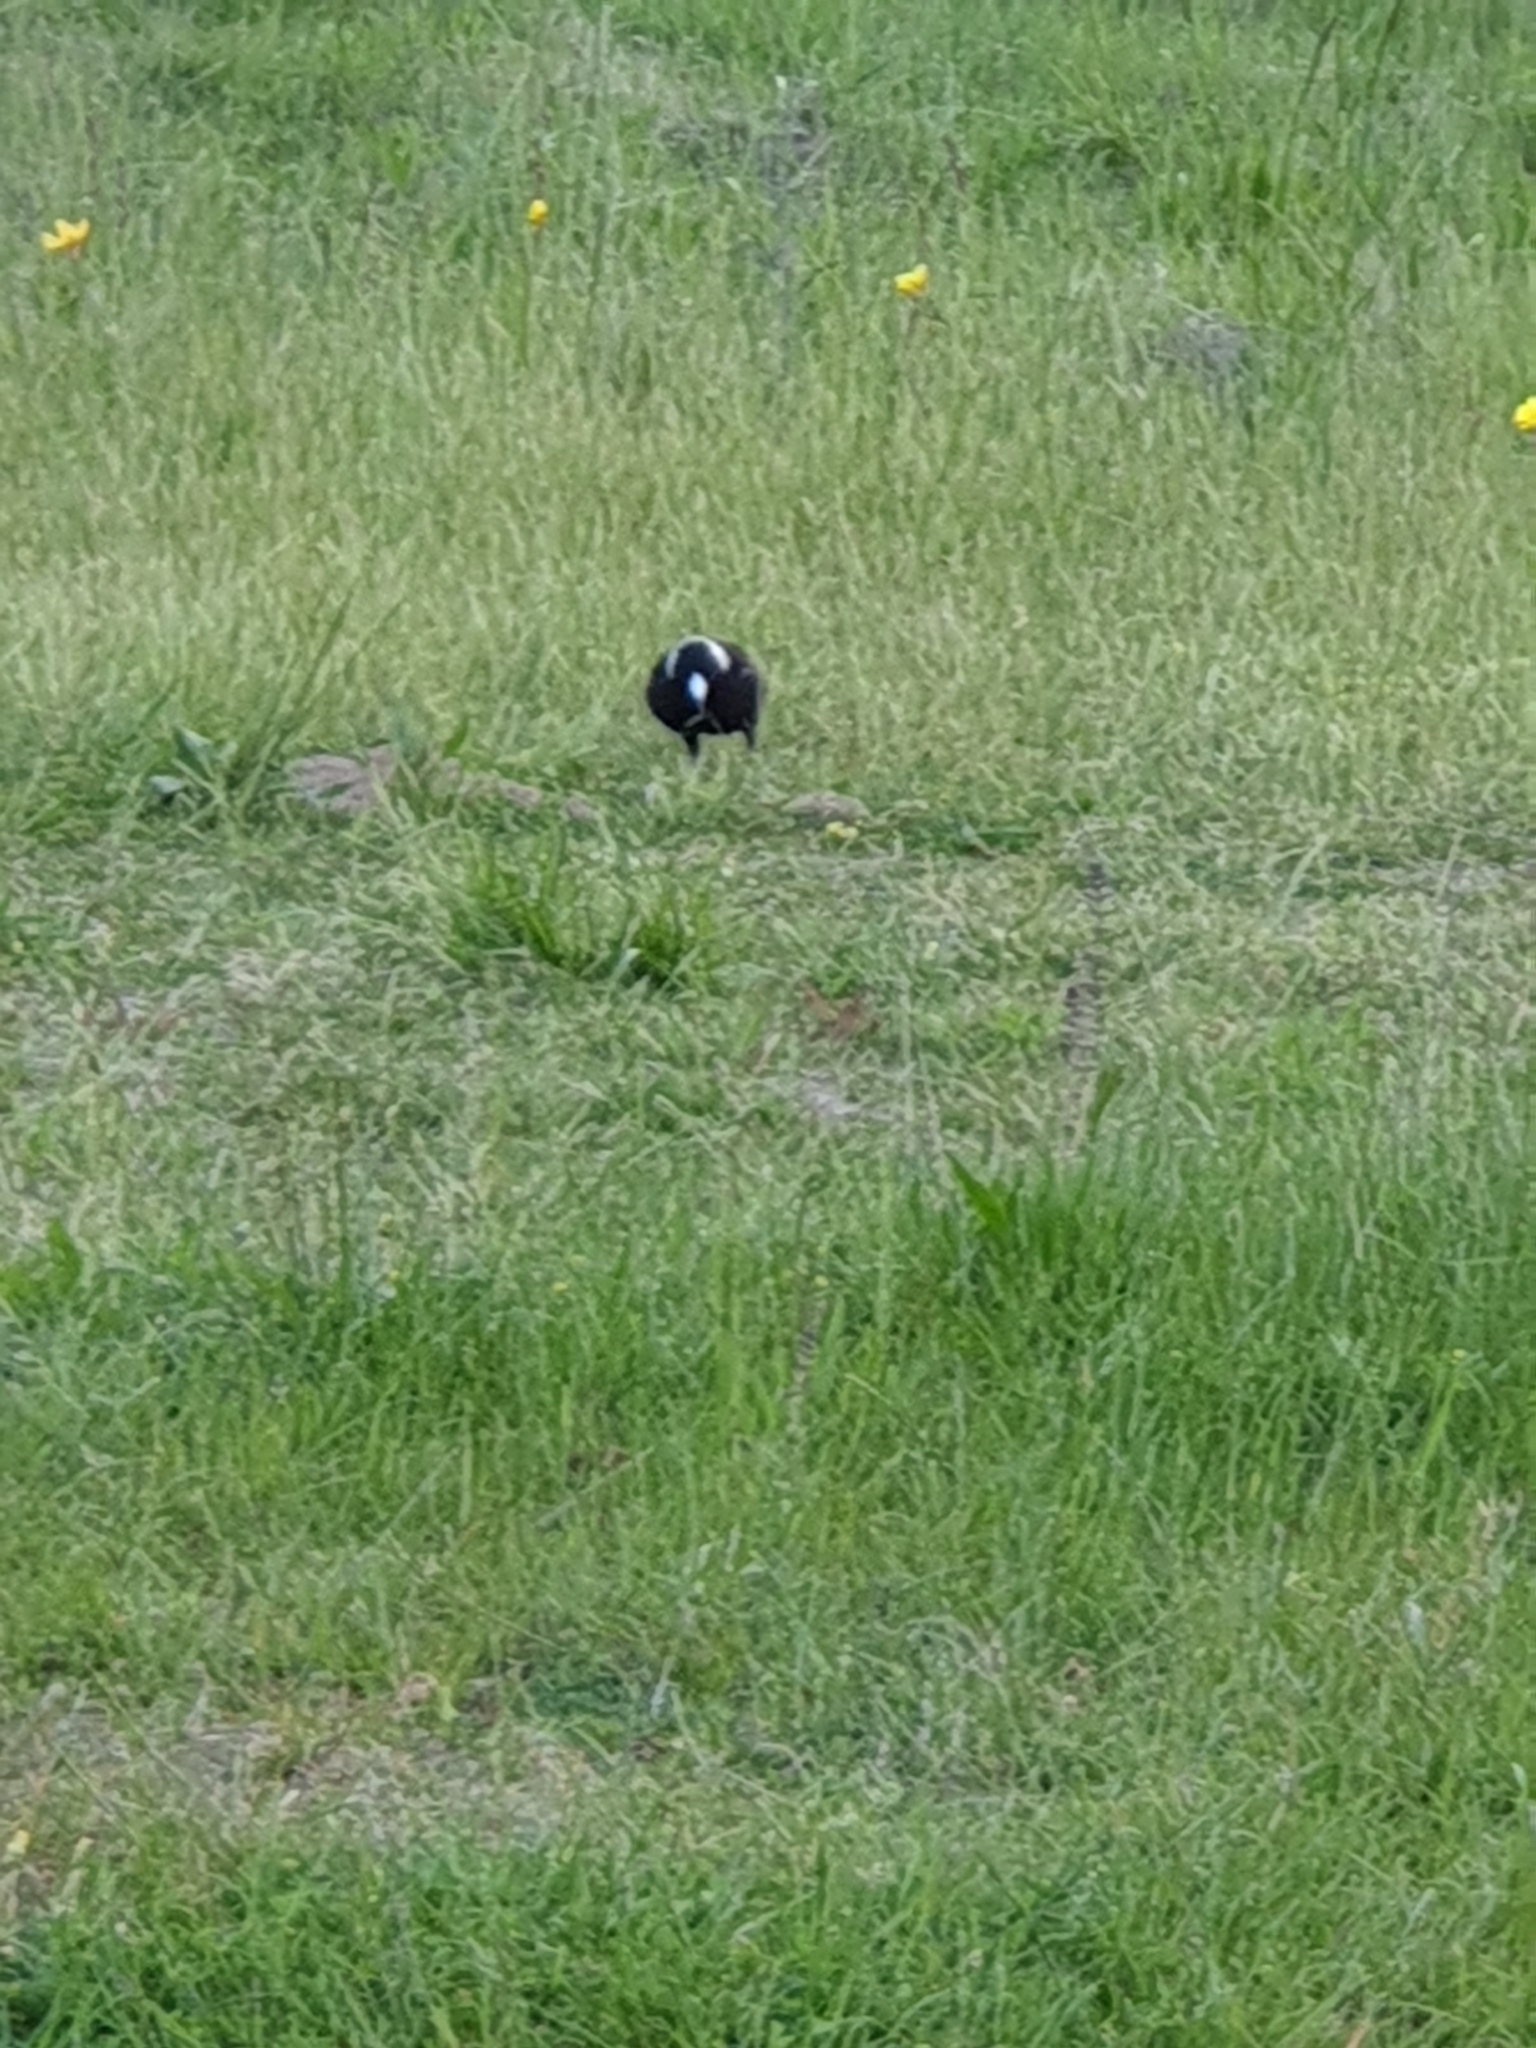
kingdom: Animalia
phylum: Chordata
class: Aves
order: Passeriformes
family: Cracticidae
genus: Gymnorhina
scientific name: Gymnorhina tibicen
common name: Australian magpie
